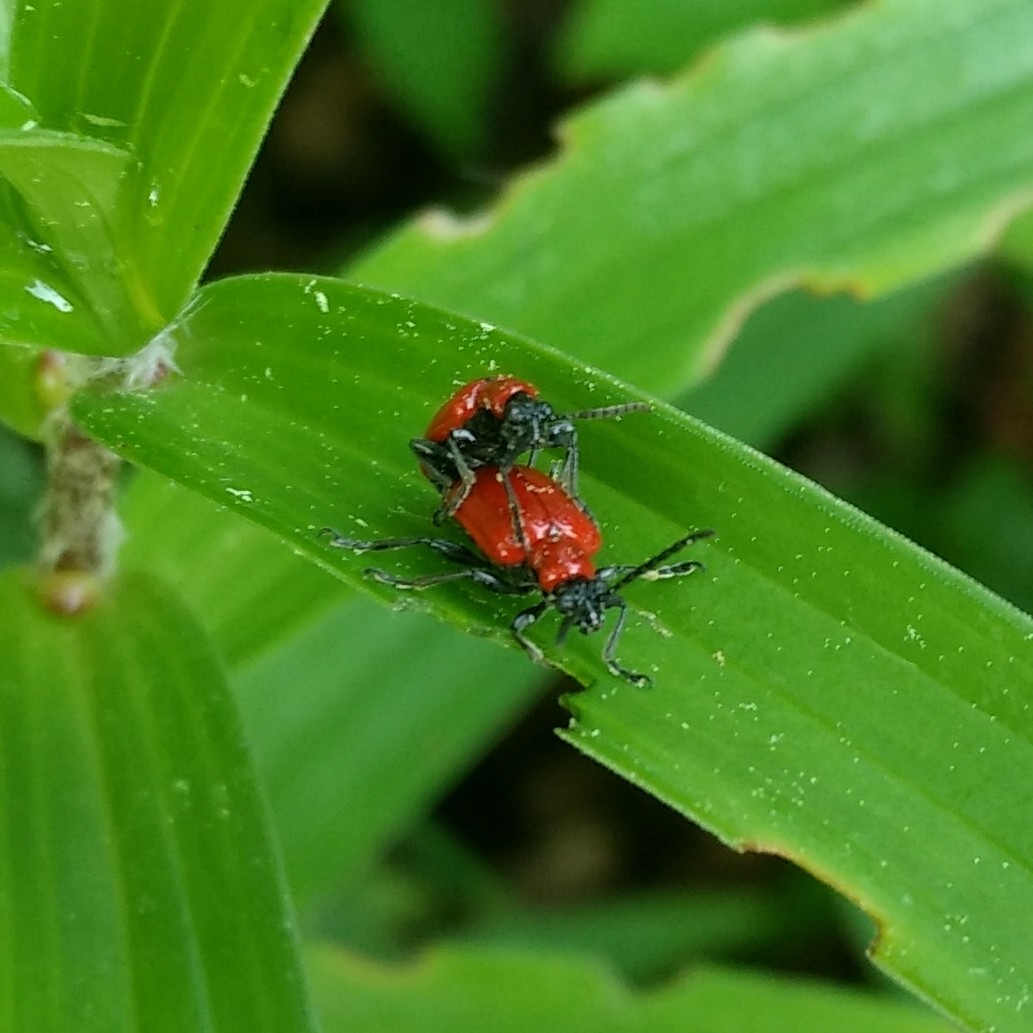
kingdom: Animalia
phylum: Arthropoda
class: Insecta
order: Coleoptera
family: Chrysomelidae
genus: Lilioceris
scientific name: Lilioceris lilii
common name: Lily beetle
